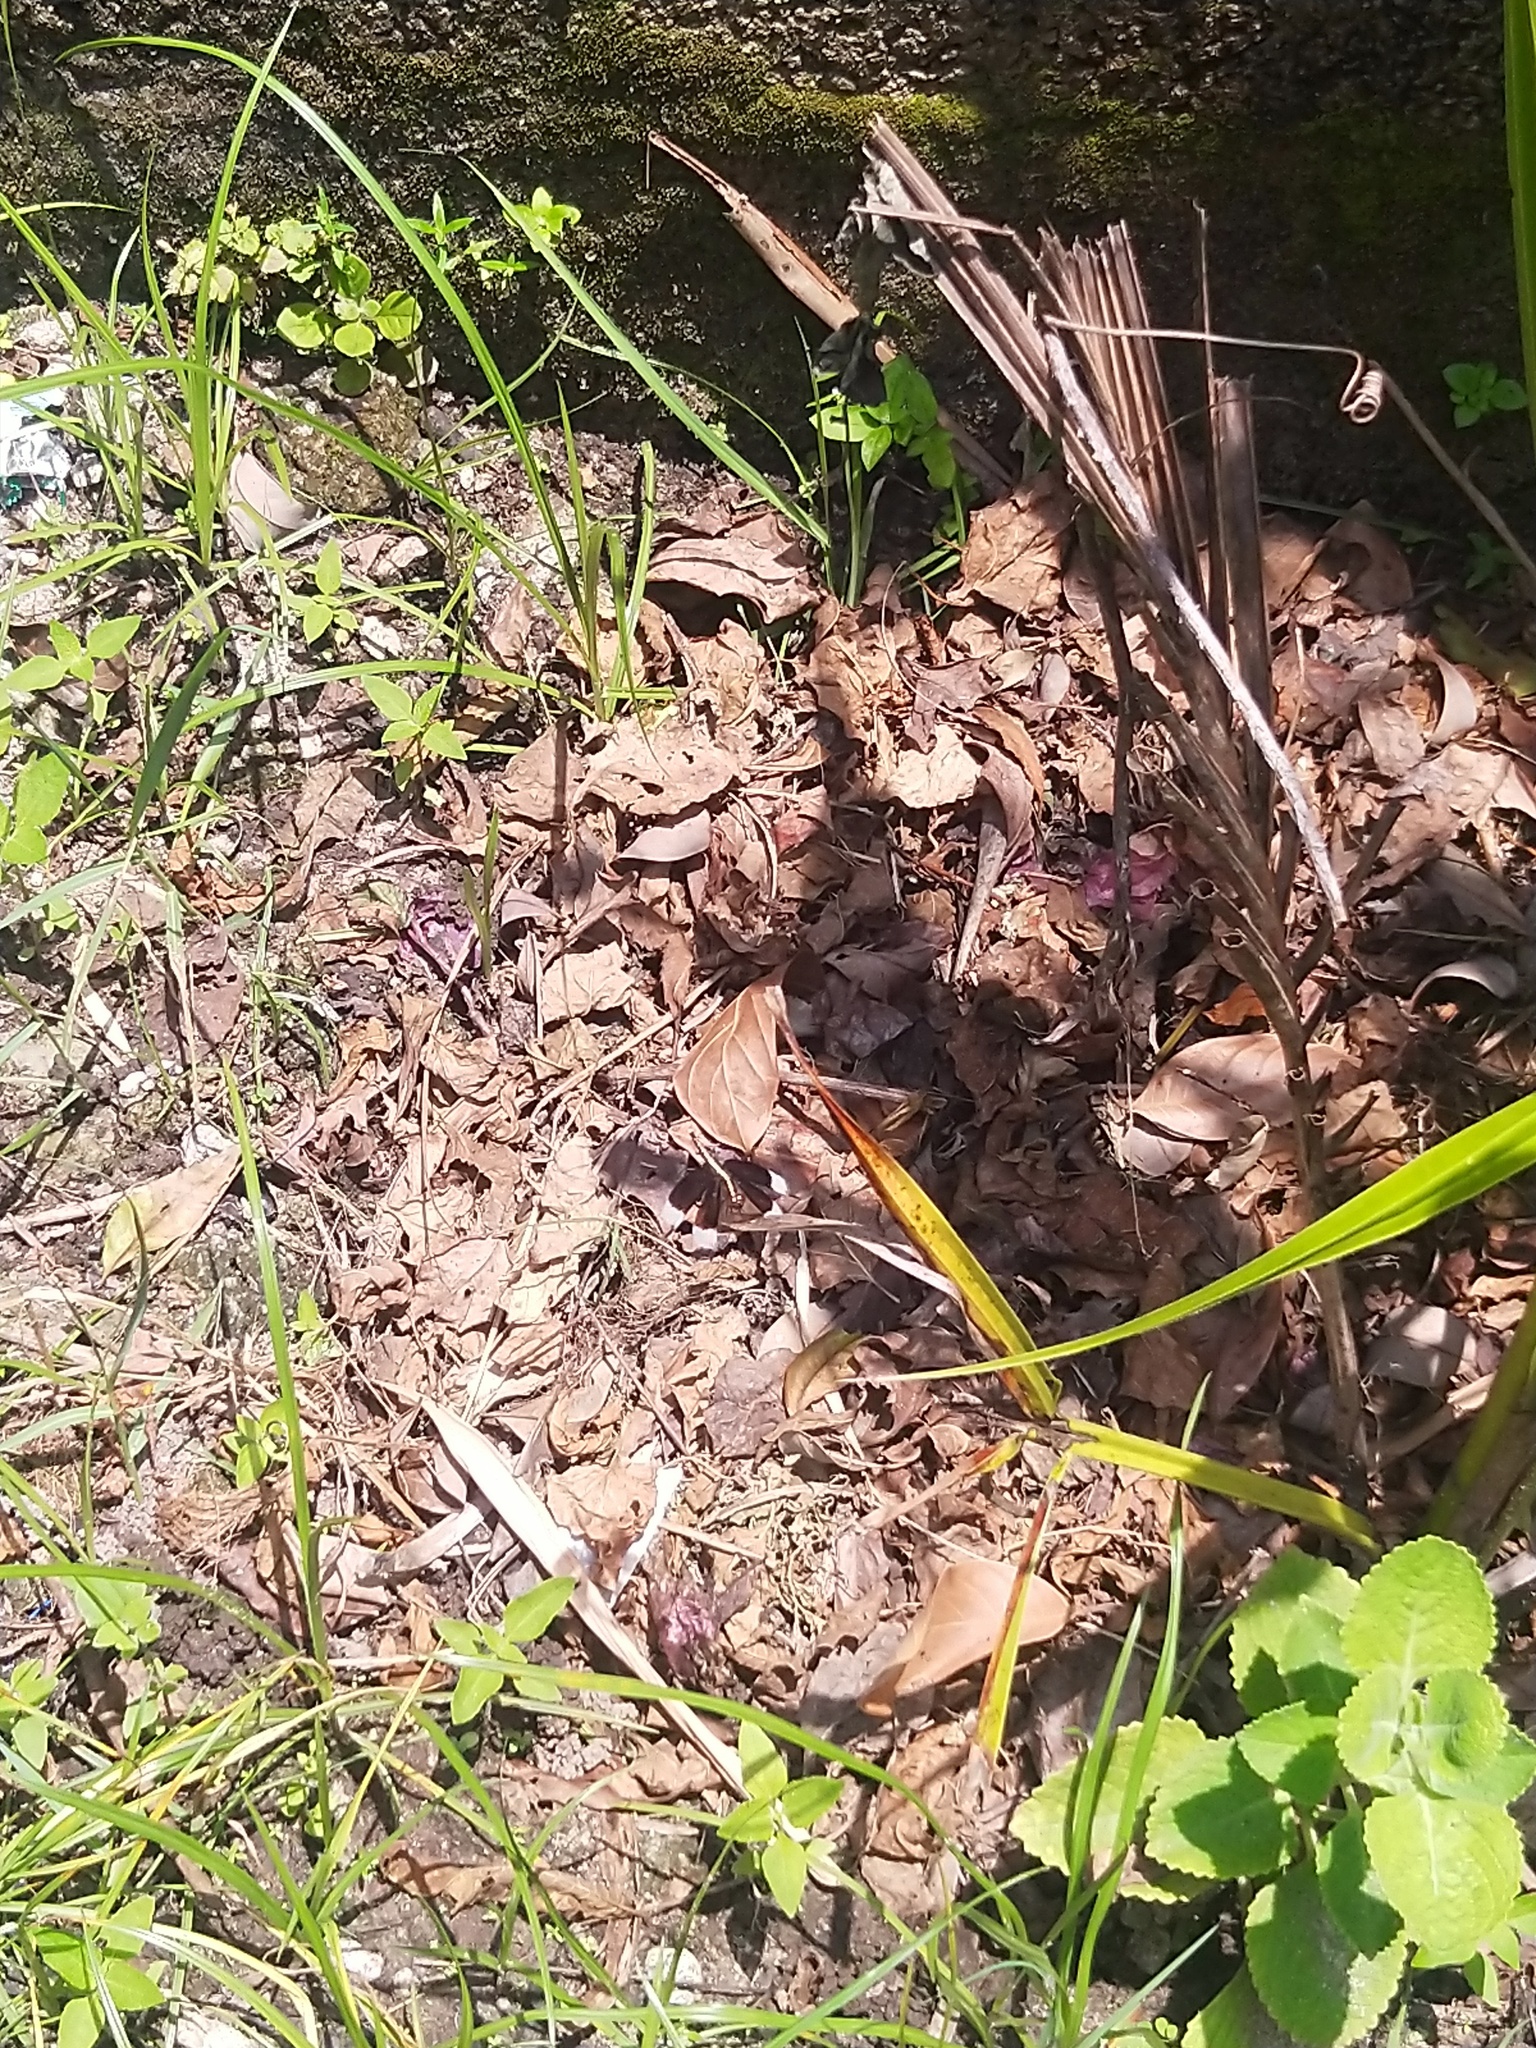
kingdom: Animalia
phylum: Arthropoda
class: Insecta
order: Odonata
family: Libellulidae
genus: Neurothemis
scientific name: Neurothemis tullia
